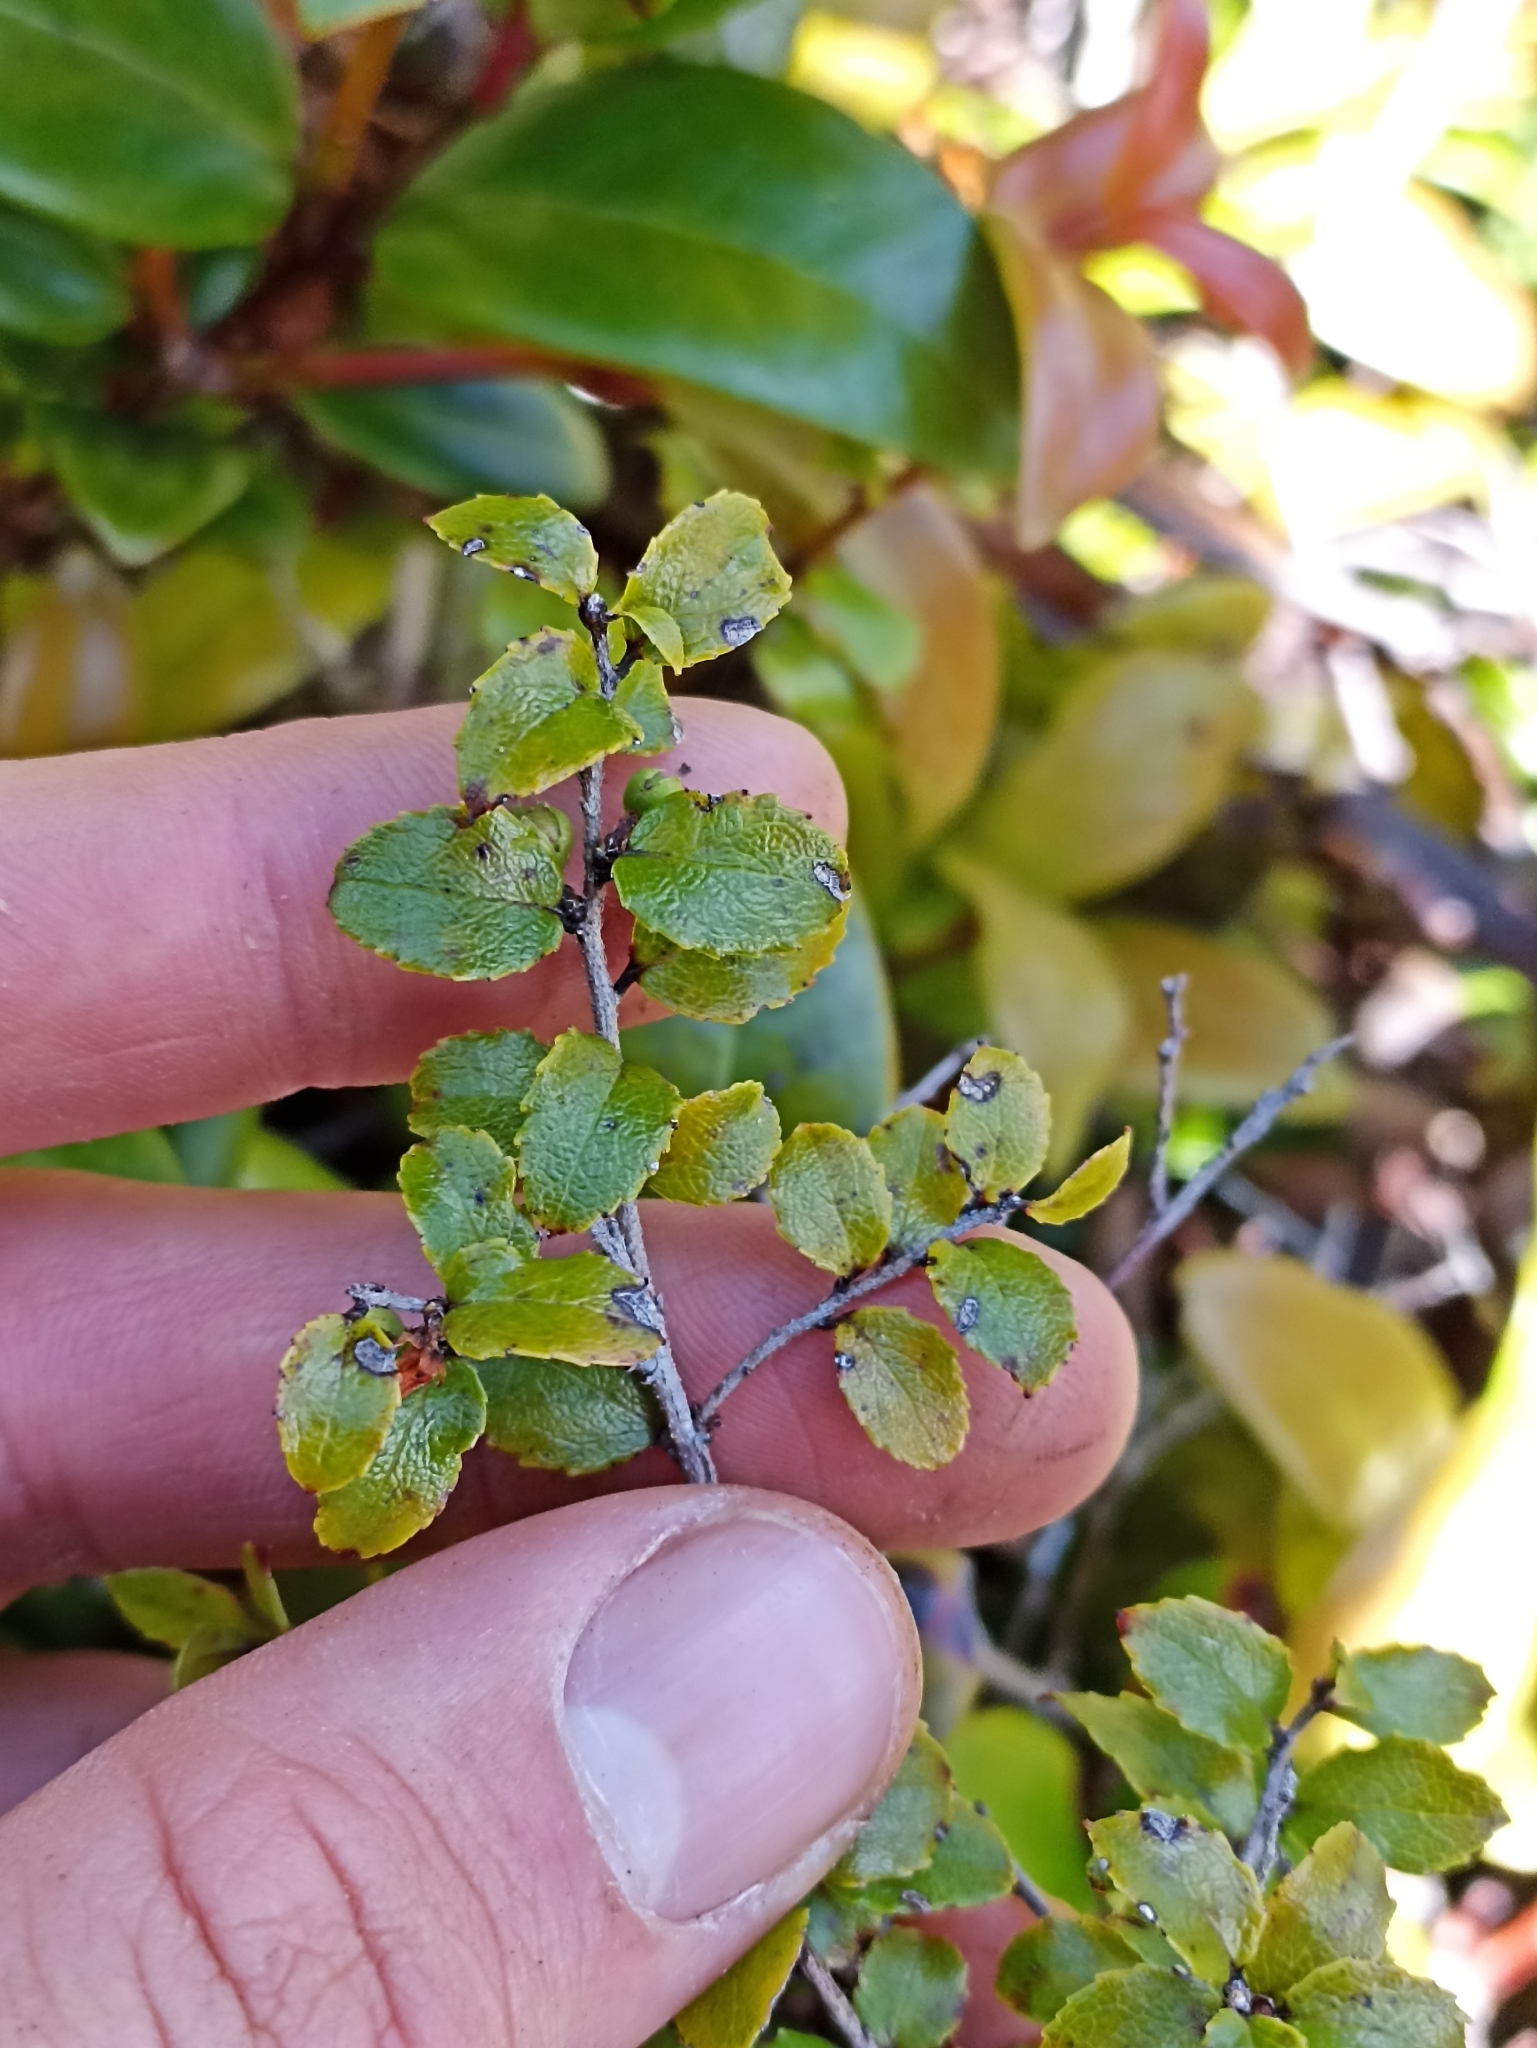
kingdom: Plantae
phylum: Tracheophyta
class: Magnoliopsida
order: Ericales
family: Ericaceae
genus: Gaultheria
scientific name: Gaultheria antipoda
